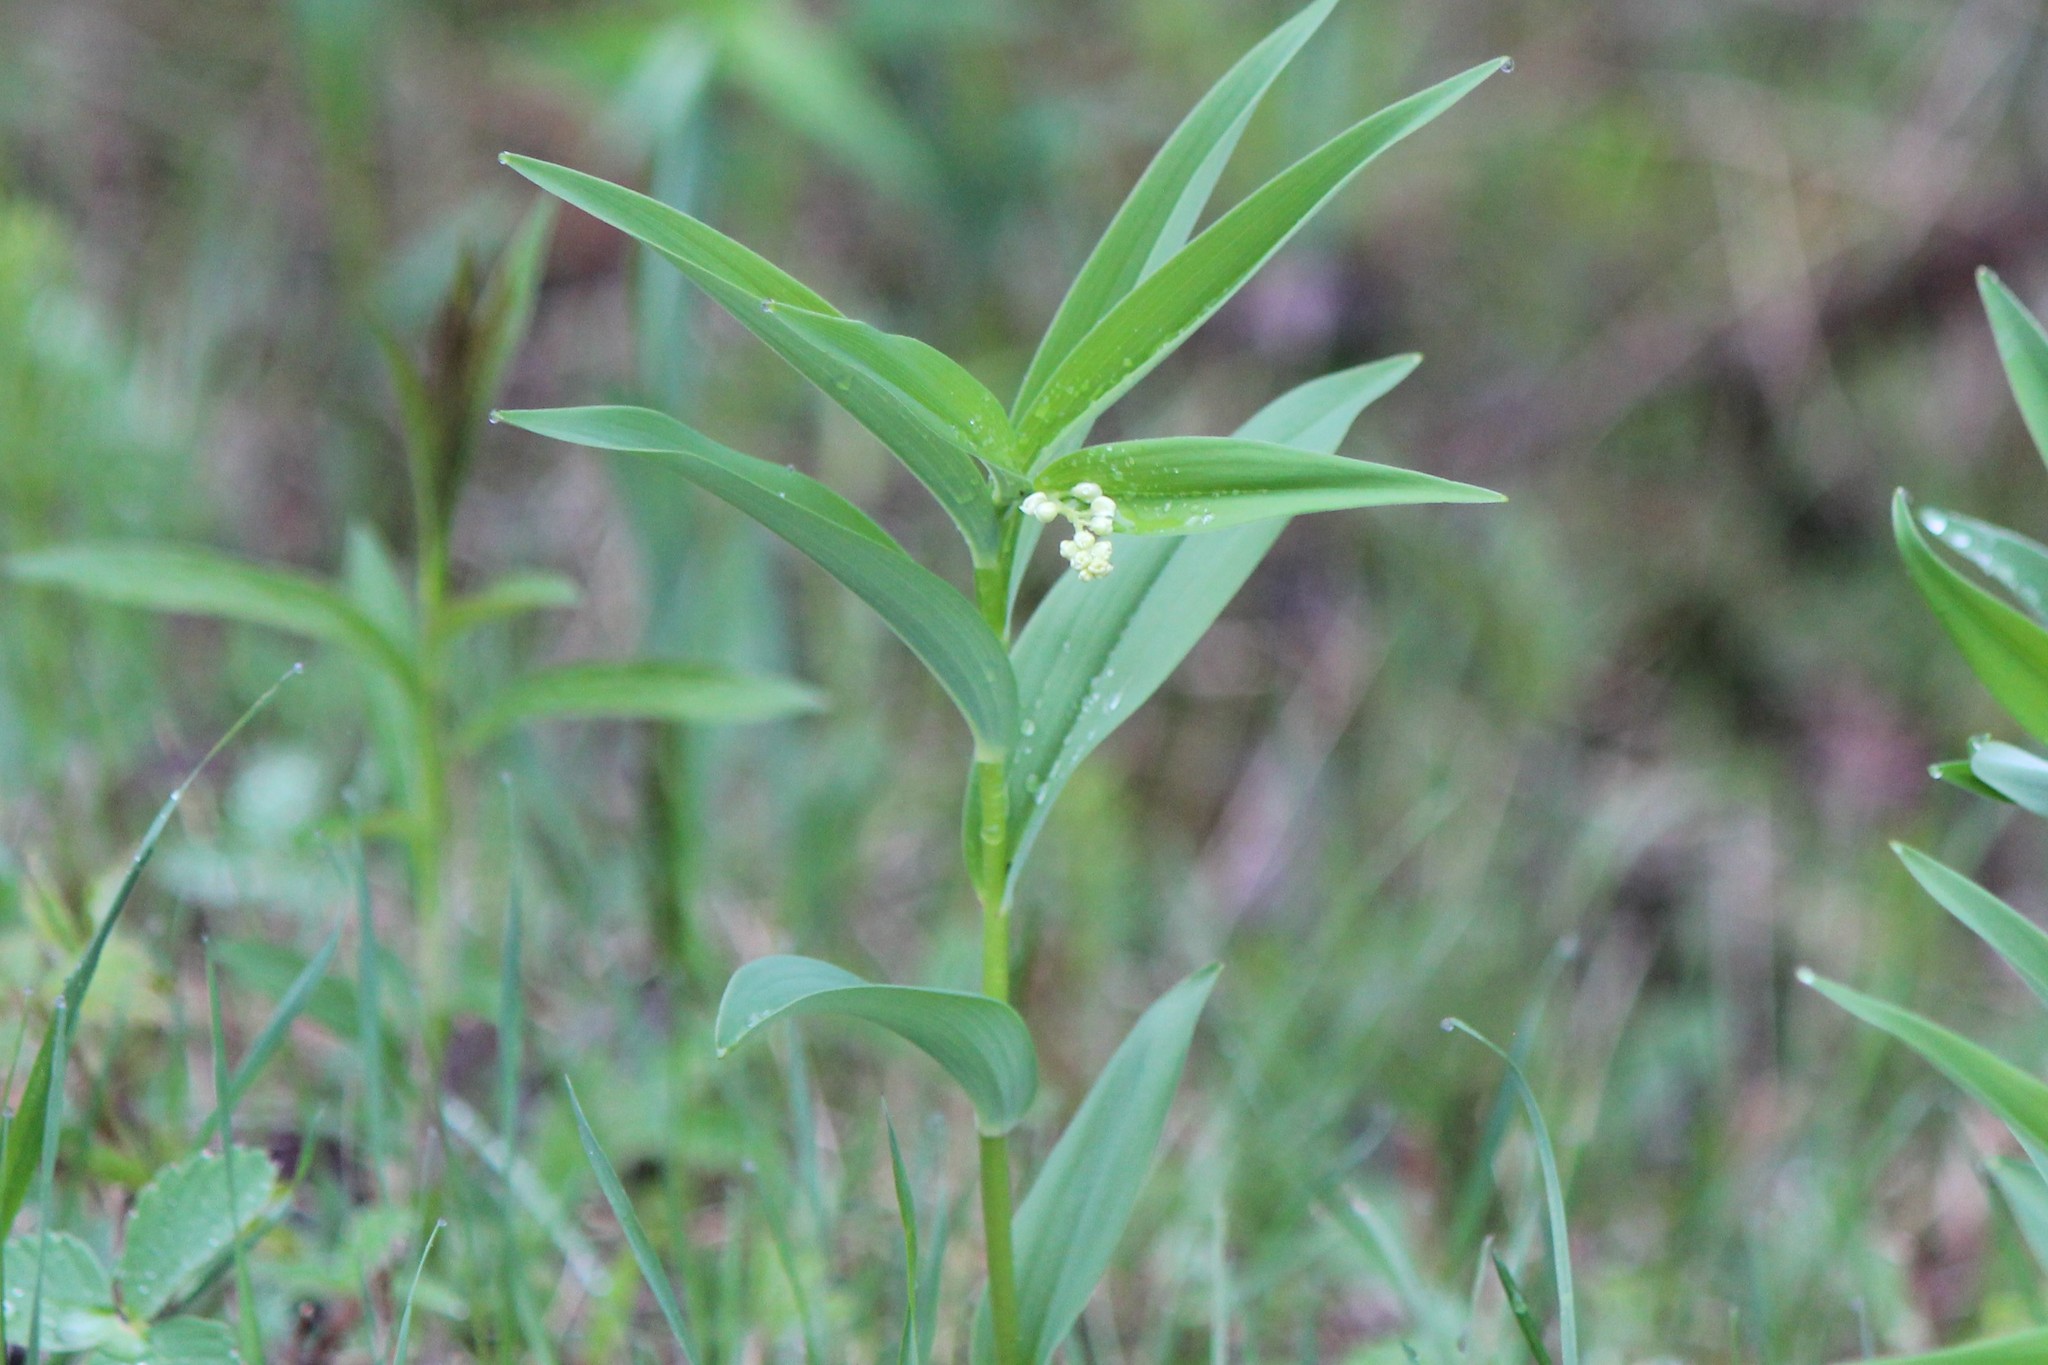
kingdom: Plantae
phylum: Tracheophyta
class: Liliopsida
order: Asparagales
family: Asparagaceae
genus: Maianthemum
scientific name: Maianthemum stellatum
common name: Little false solomon's seal
